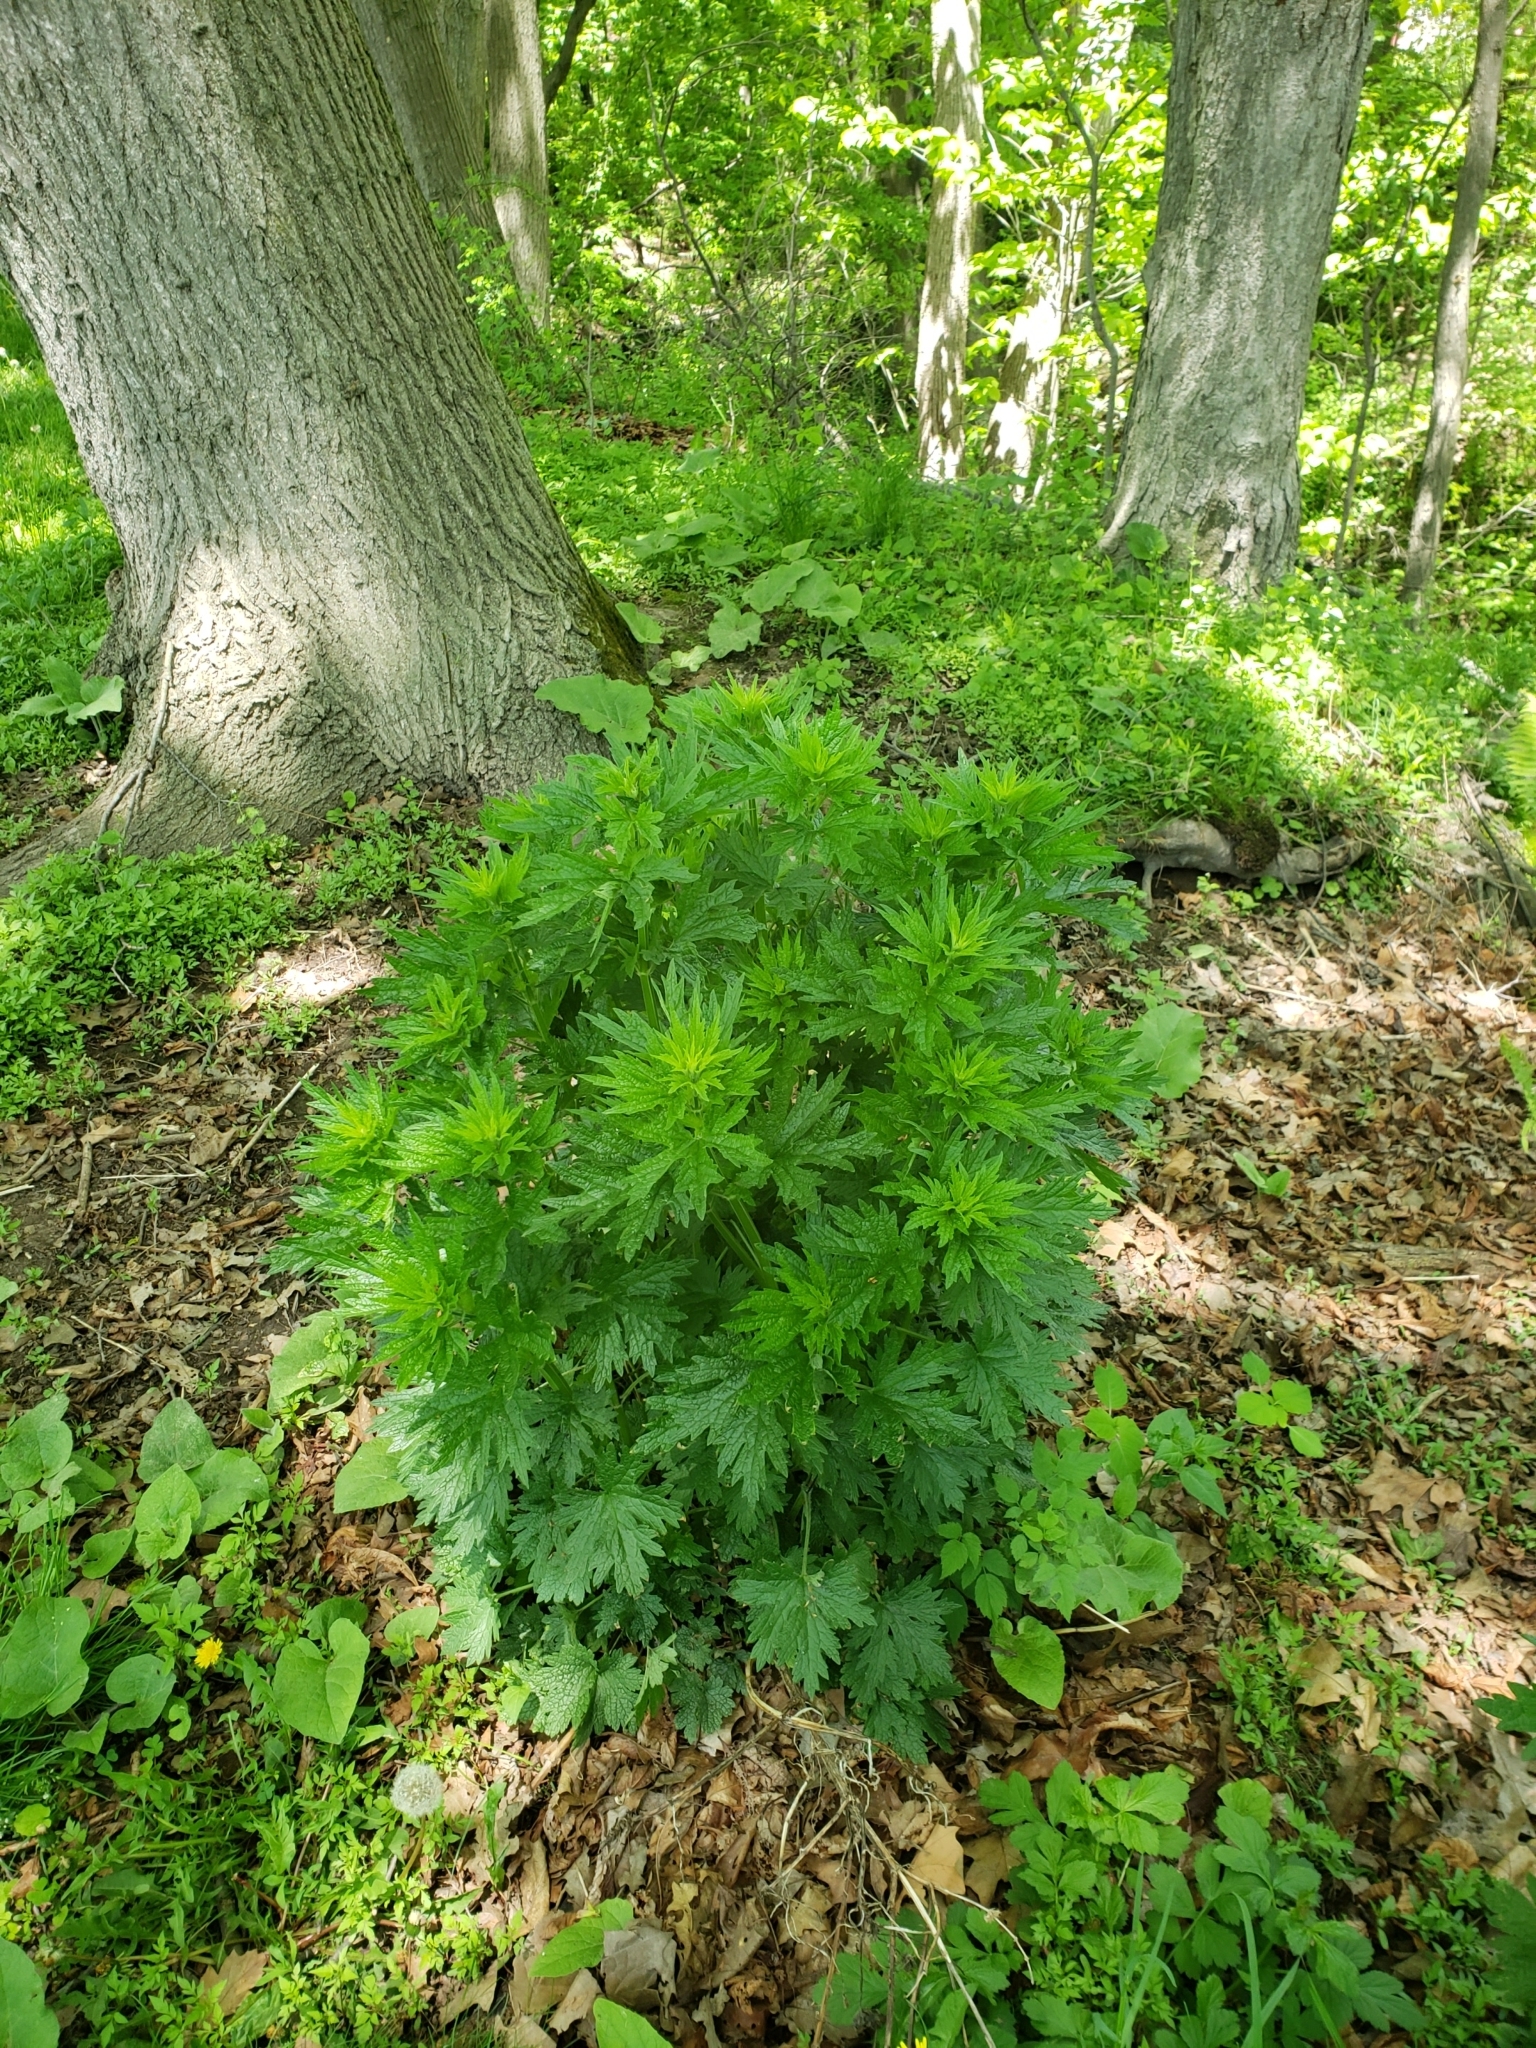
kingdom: Plantae
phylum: Tracheophyta
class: Magnoliopsida
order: Lamiales
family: Lamiaceae
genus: Leonurus
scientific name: Leonurus cardiaca
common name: Motherwort
